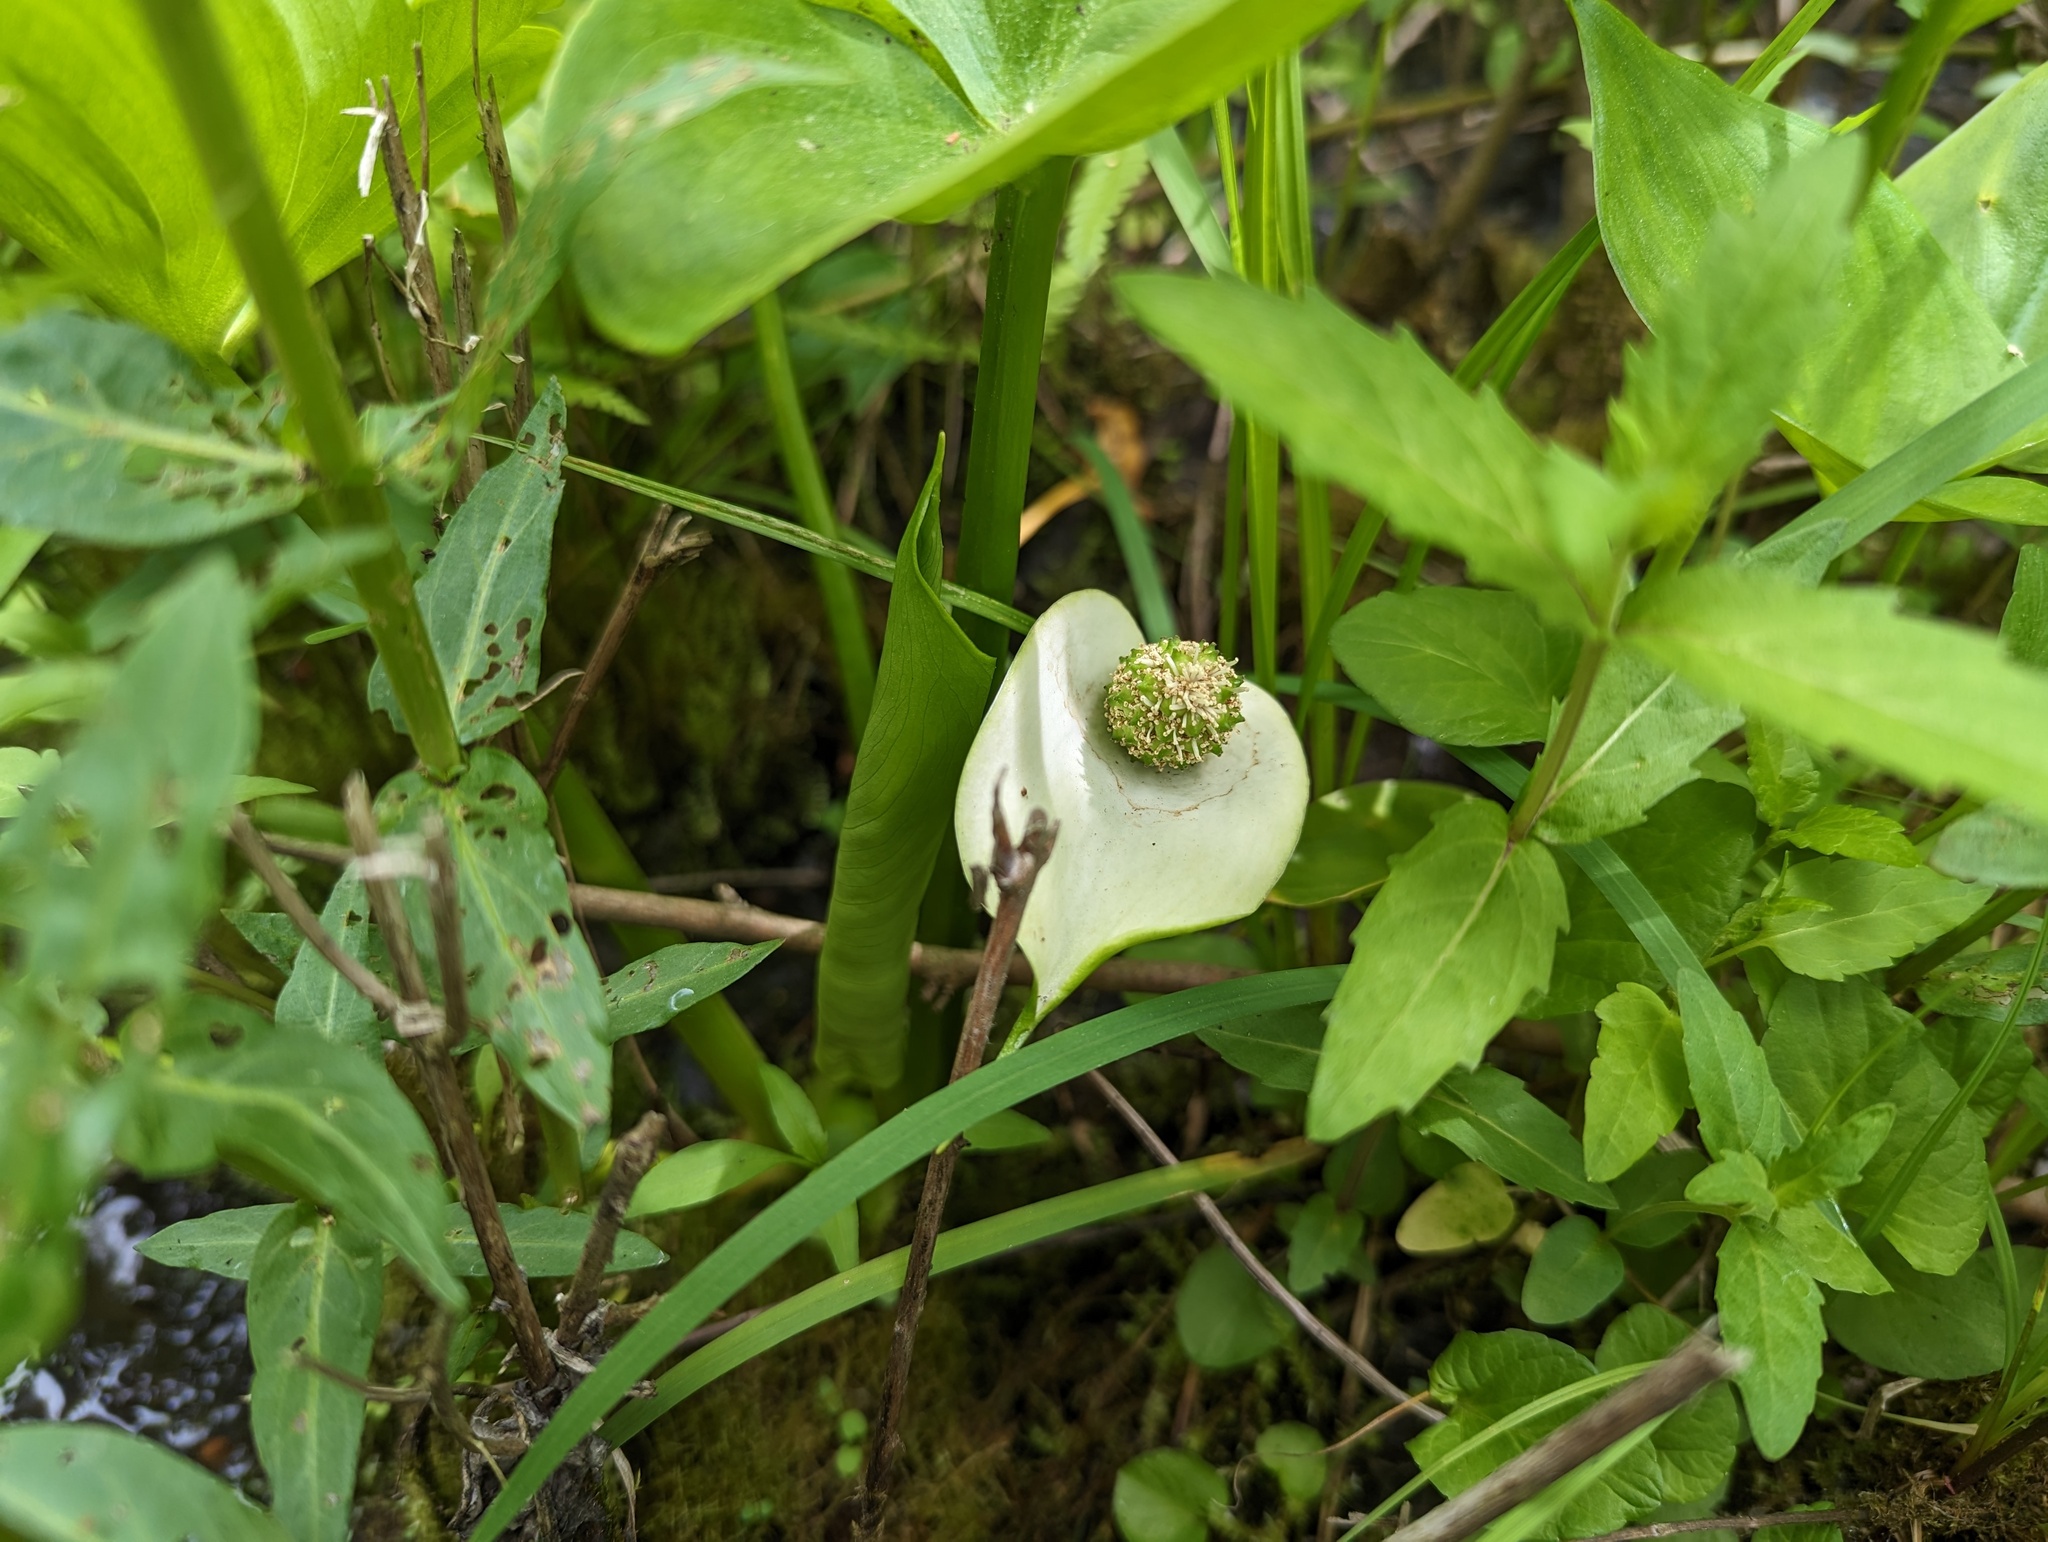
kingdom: Plantae
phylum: Tracheophyta
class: Liliopsida
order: Alismatales
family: Araceae
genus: Calla
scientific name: Calla palustris
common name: Bog arum
